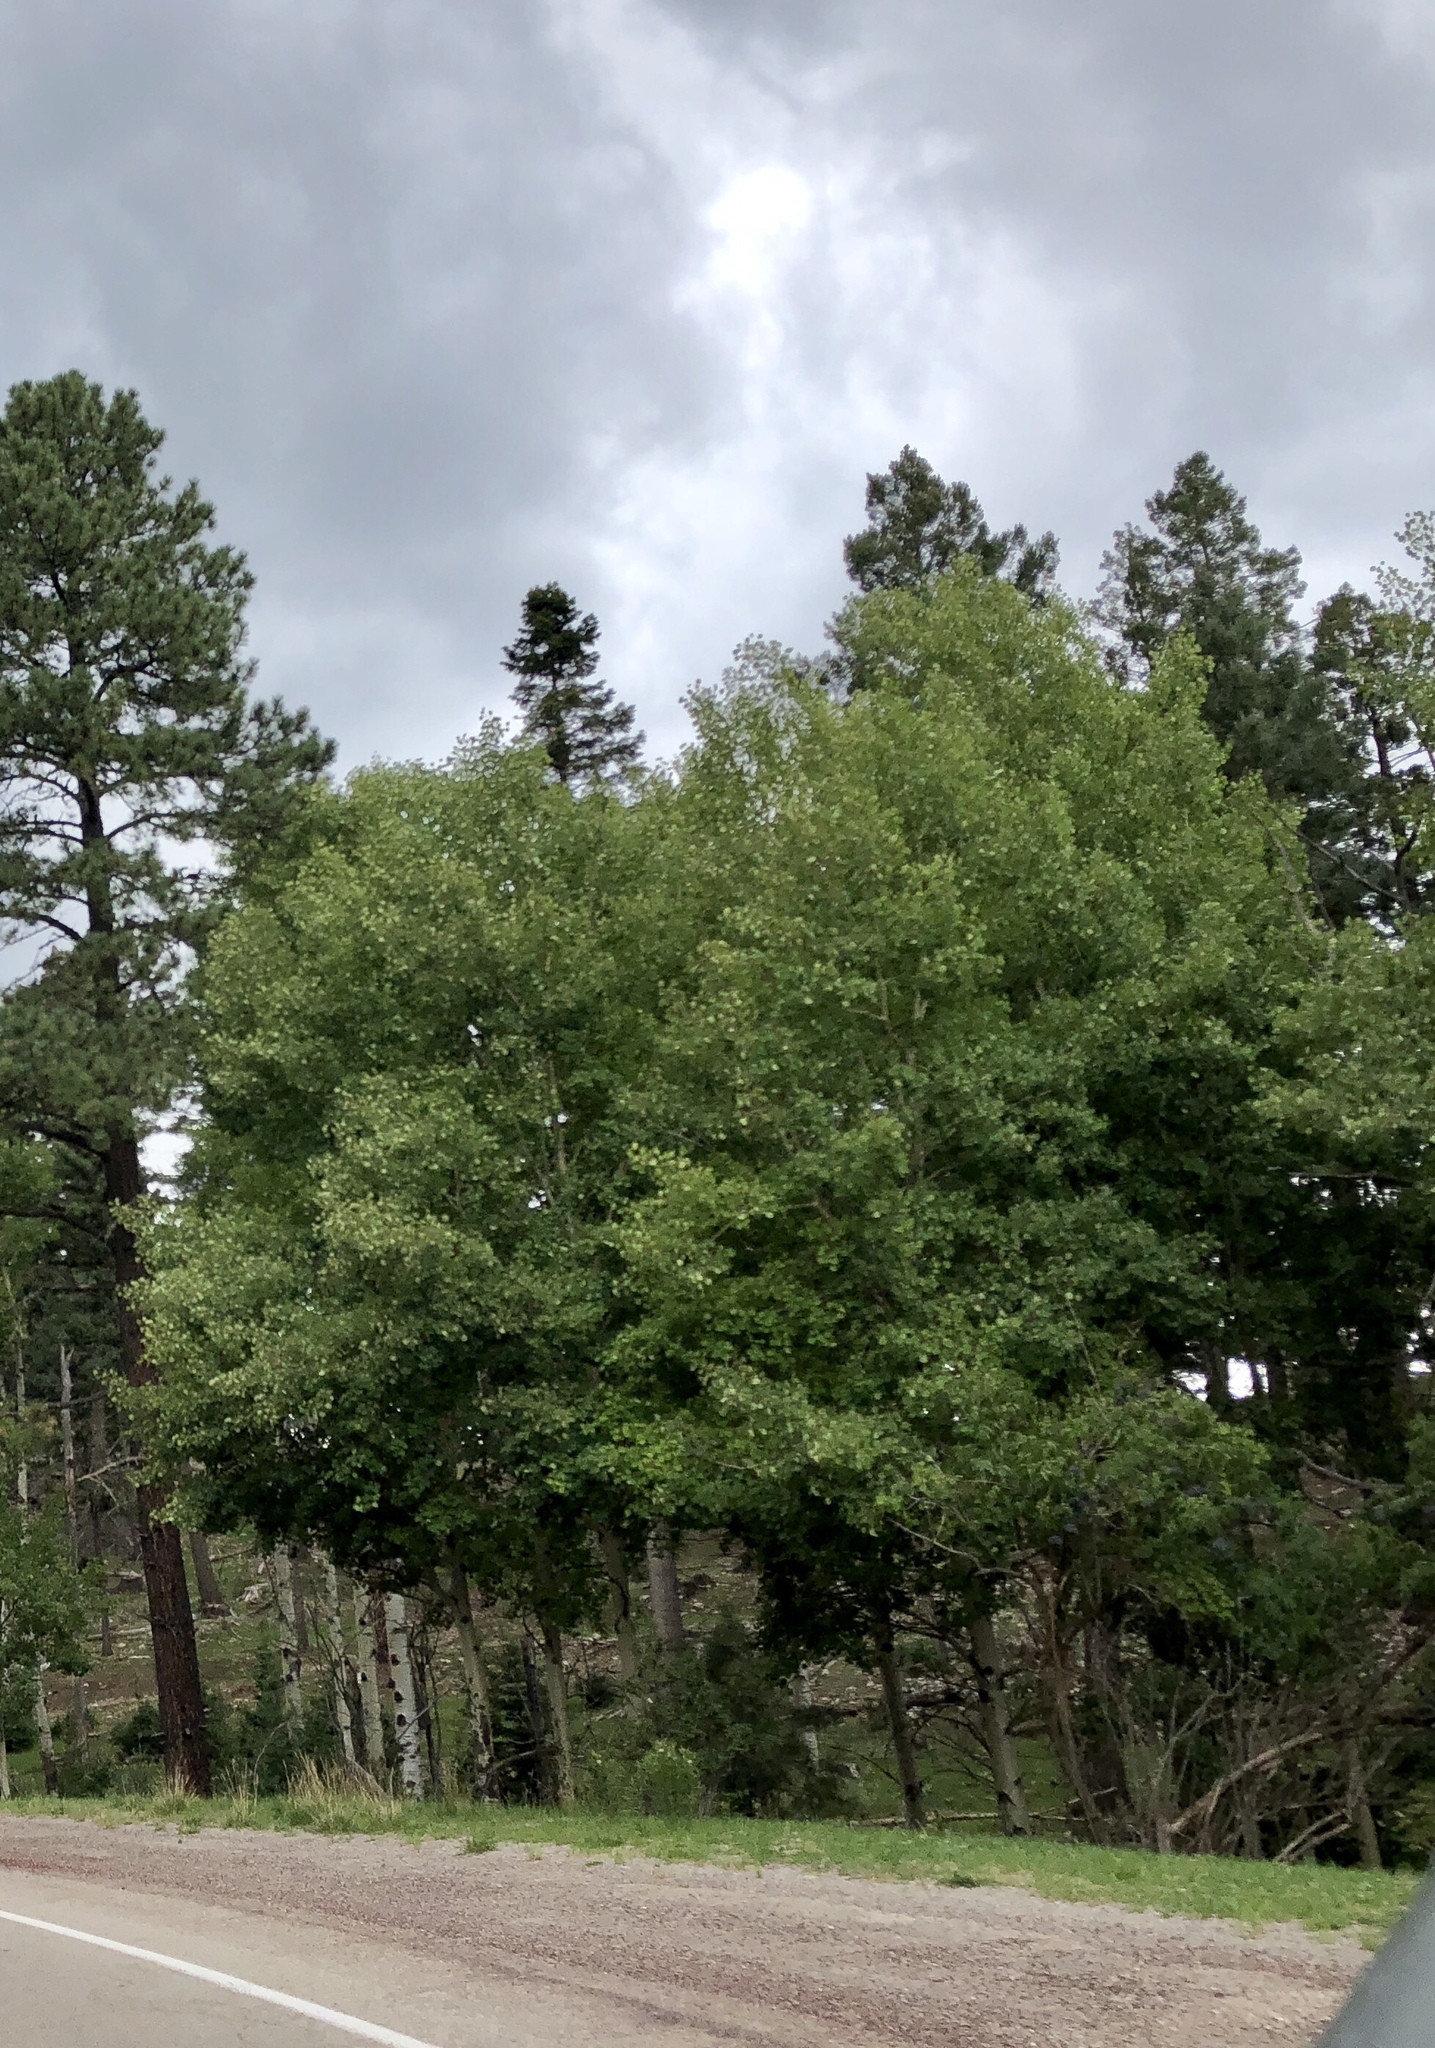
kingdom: Plantae
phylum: Tracheophyta
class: Magnoliopsida
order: Malpighiales
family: Salicaceae
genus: Populus
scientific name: Populus tremuloides
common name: Quaking aspen
